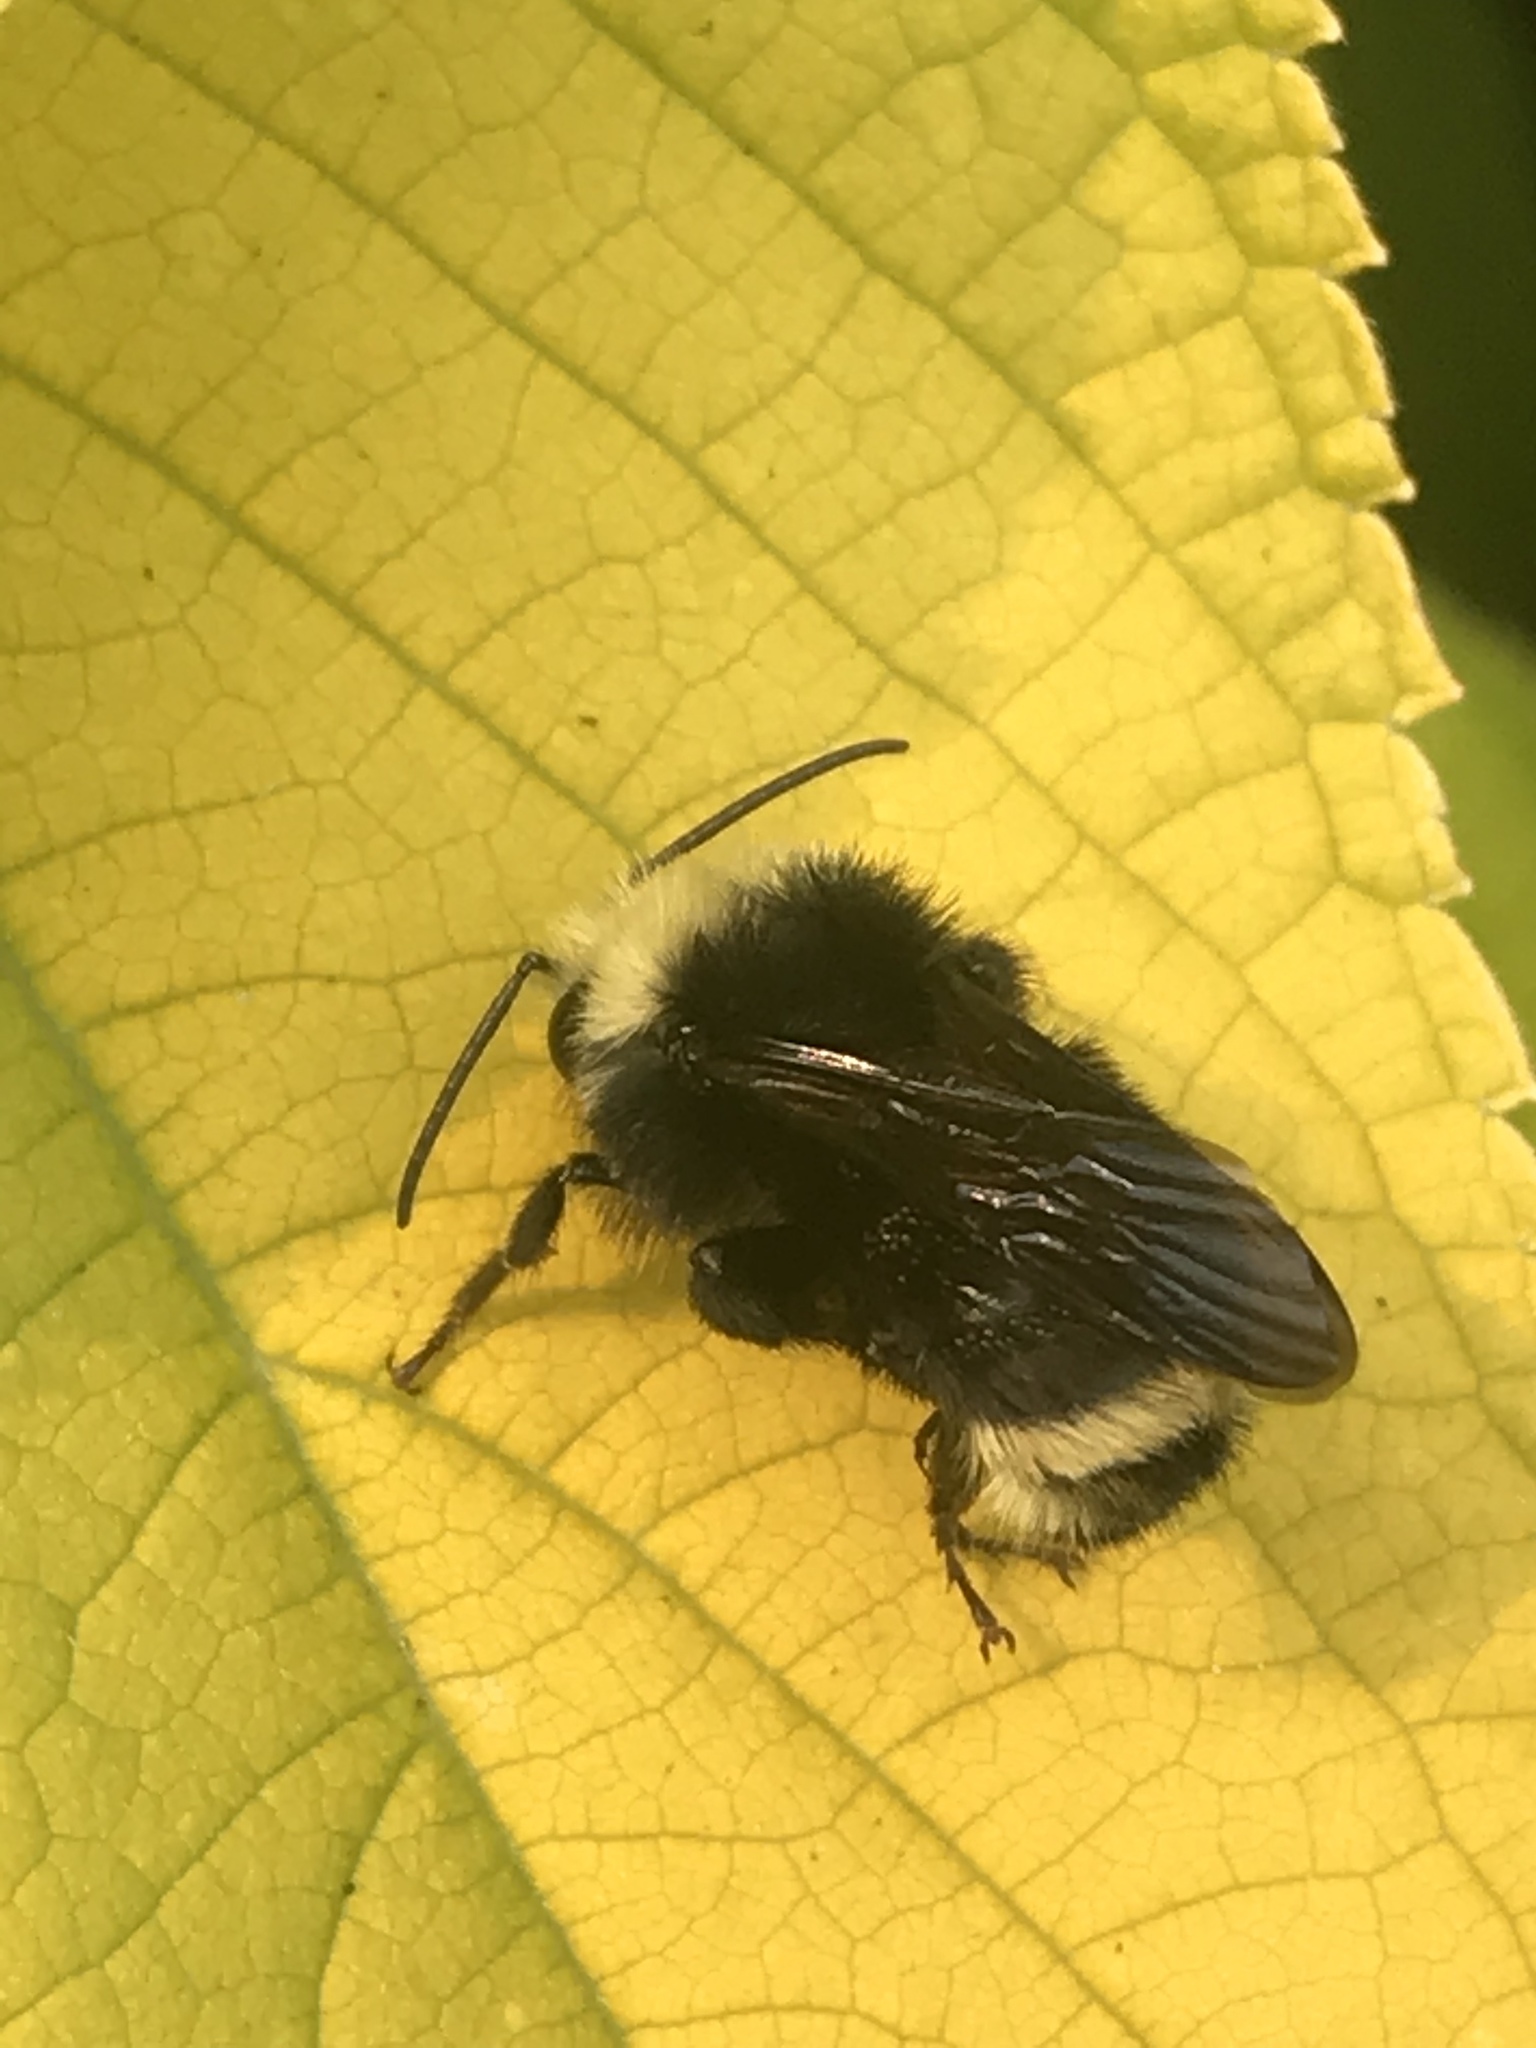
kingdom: Animalia
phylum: Arthropoda
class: Insecta
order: Hymenoptera
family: Apidae
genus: Bombus
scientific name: Bombus vosnesenskii
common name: Vosnesensky bumble bee
